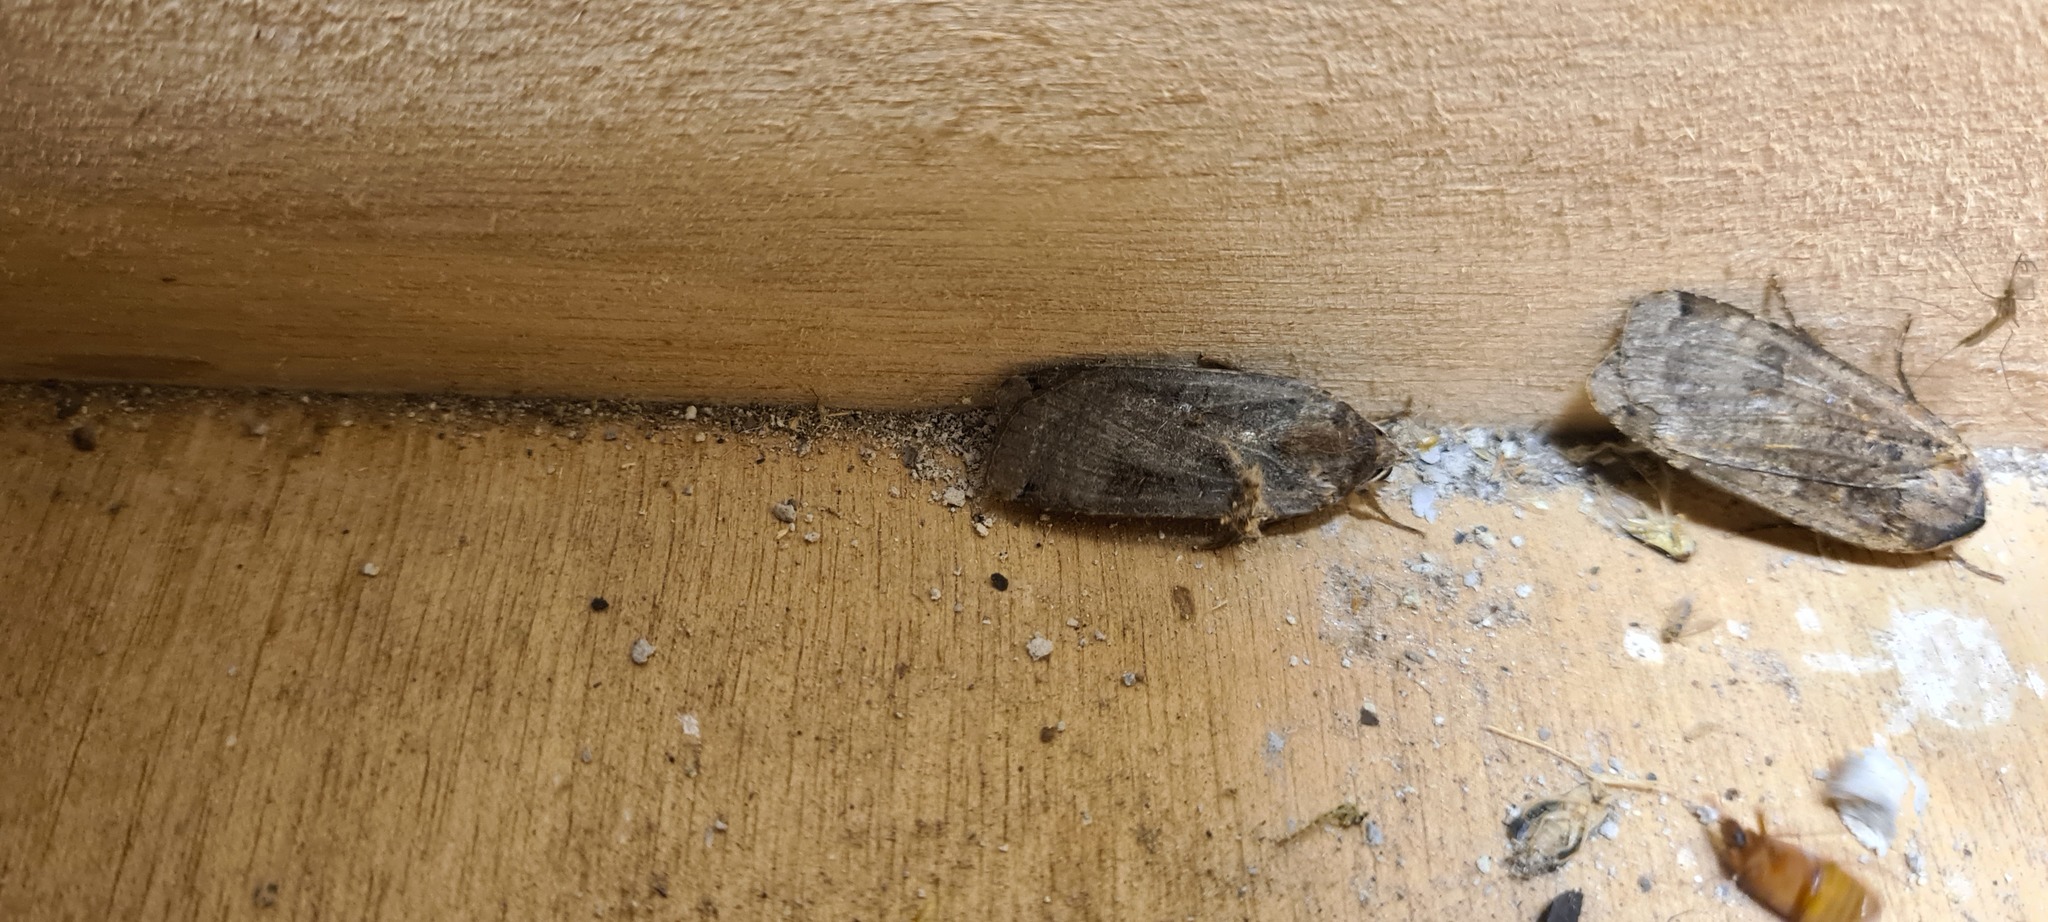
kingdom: Animalia
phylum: Arthropoda
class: Insecta
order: Lepidoptera
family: Noctuidae
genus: Noctua
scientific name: Noctua pronuba
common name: Large yellow underwing
